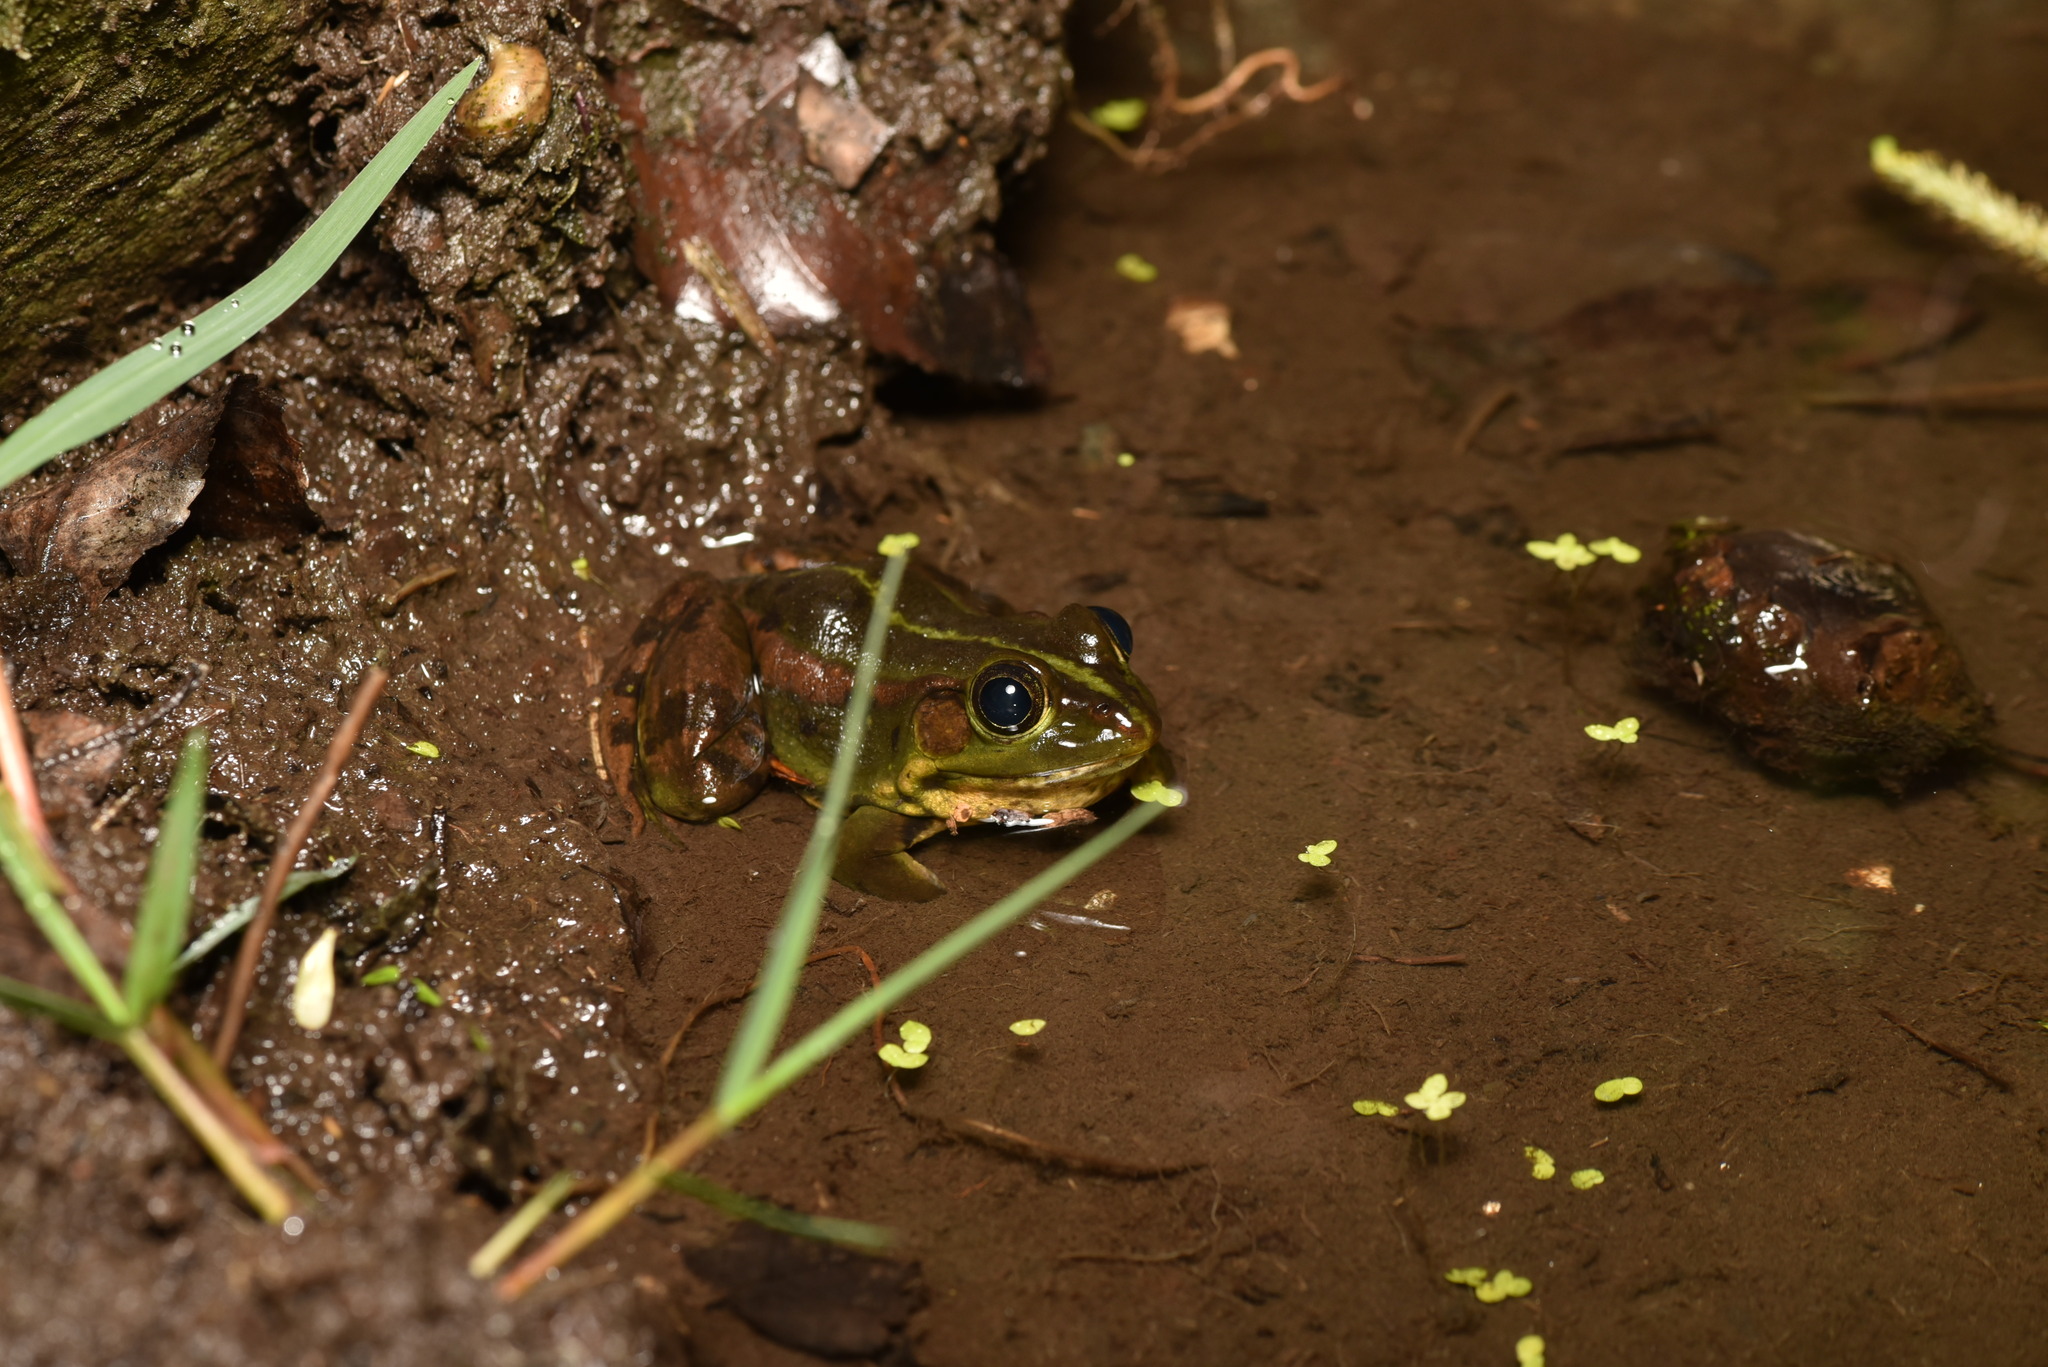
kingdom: Animalia
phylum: Chordata
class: Amphibia
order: Anura
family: Ranidae
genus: Pelophylax
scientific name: Pelophylax fukienensis
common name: Fukien gold-striped pond frog
